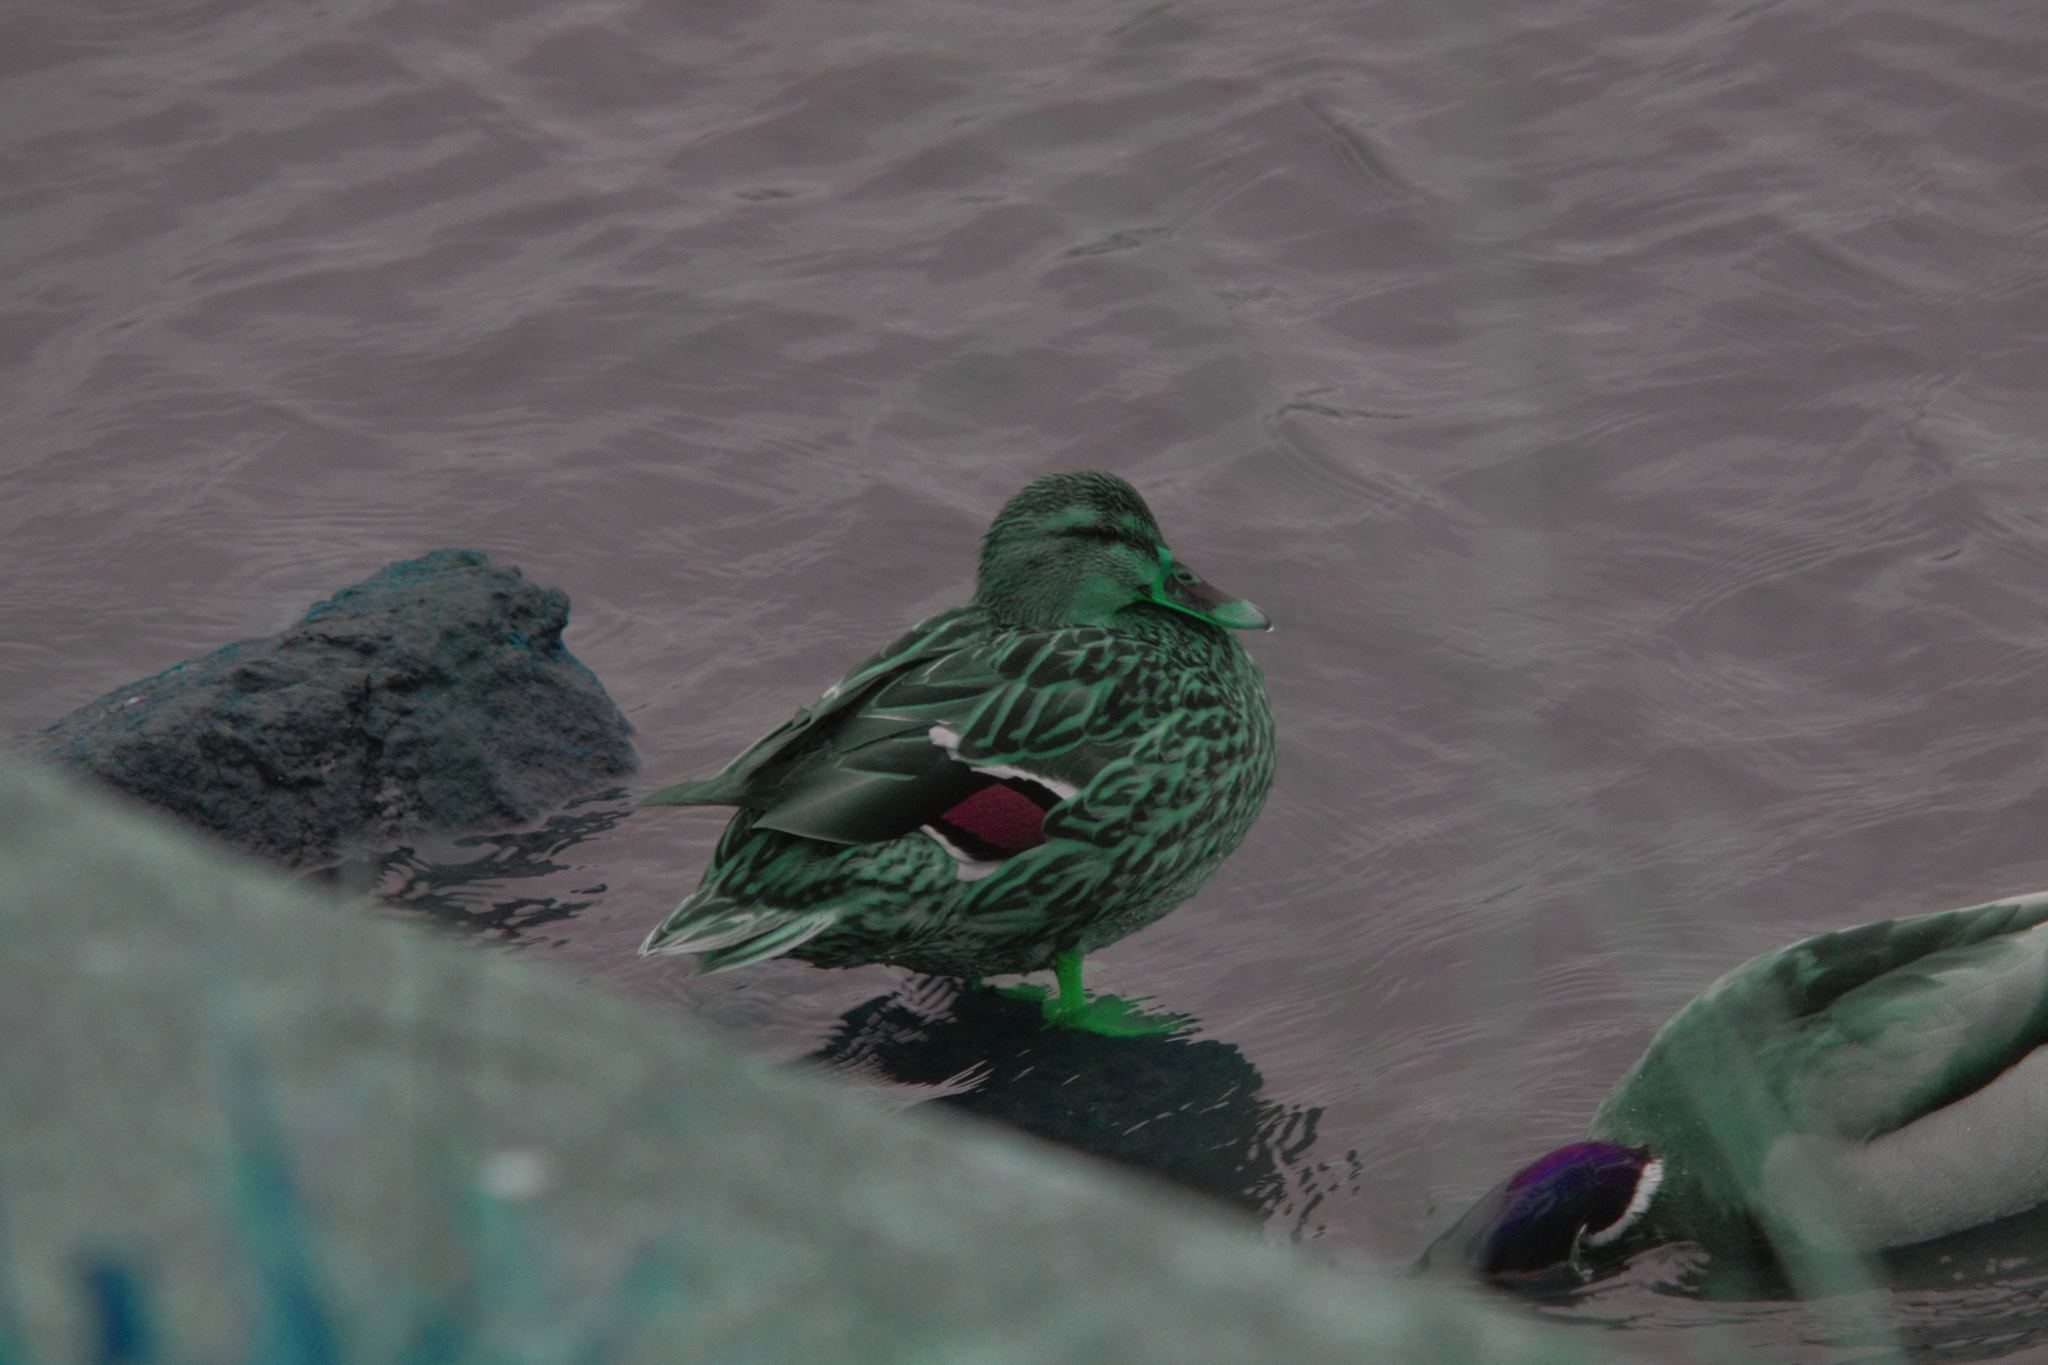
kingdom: Animalia
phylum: Chordata
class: Aves
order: Anseriformes
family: Anatidae
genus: Anas
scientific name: Anas platyrhynchos
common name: Mallard
